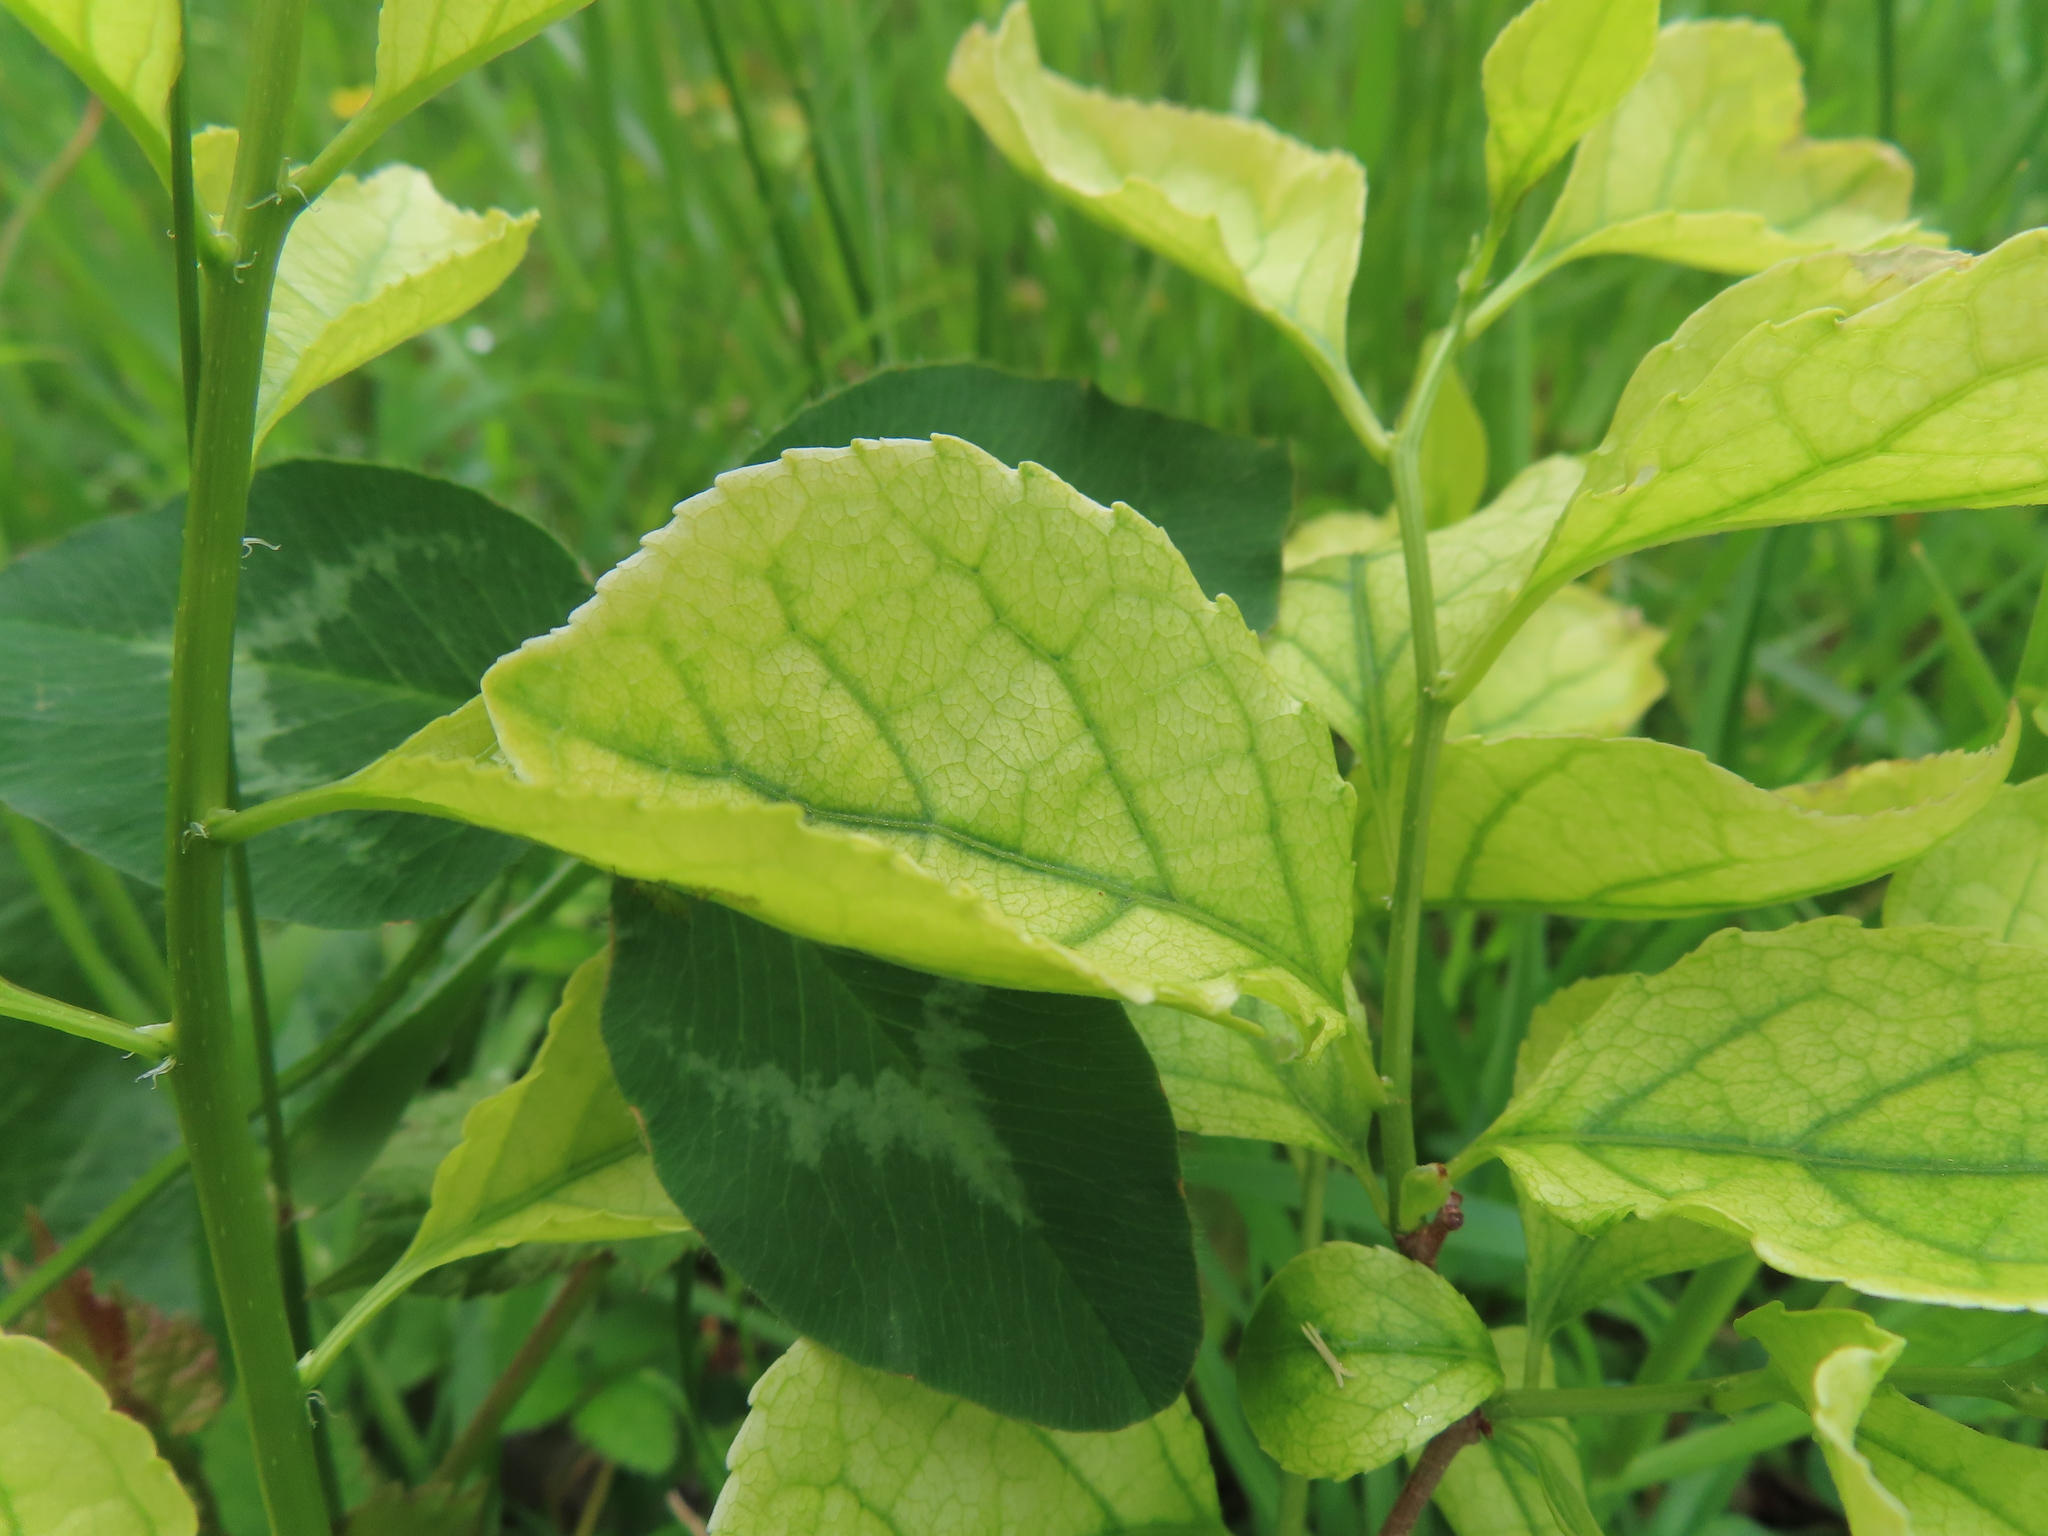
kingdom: Plantae
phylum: Tracheophyta
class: Magnoliopsida
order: Celastrales
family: Celastraceae
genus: Celastrus
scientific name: Celastrus orbiculatus
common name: Oriental bittersweet
